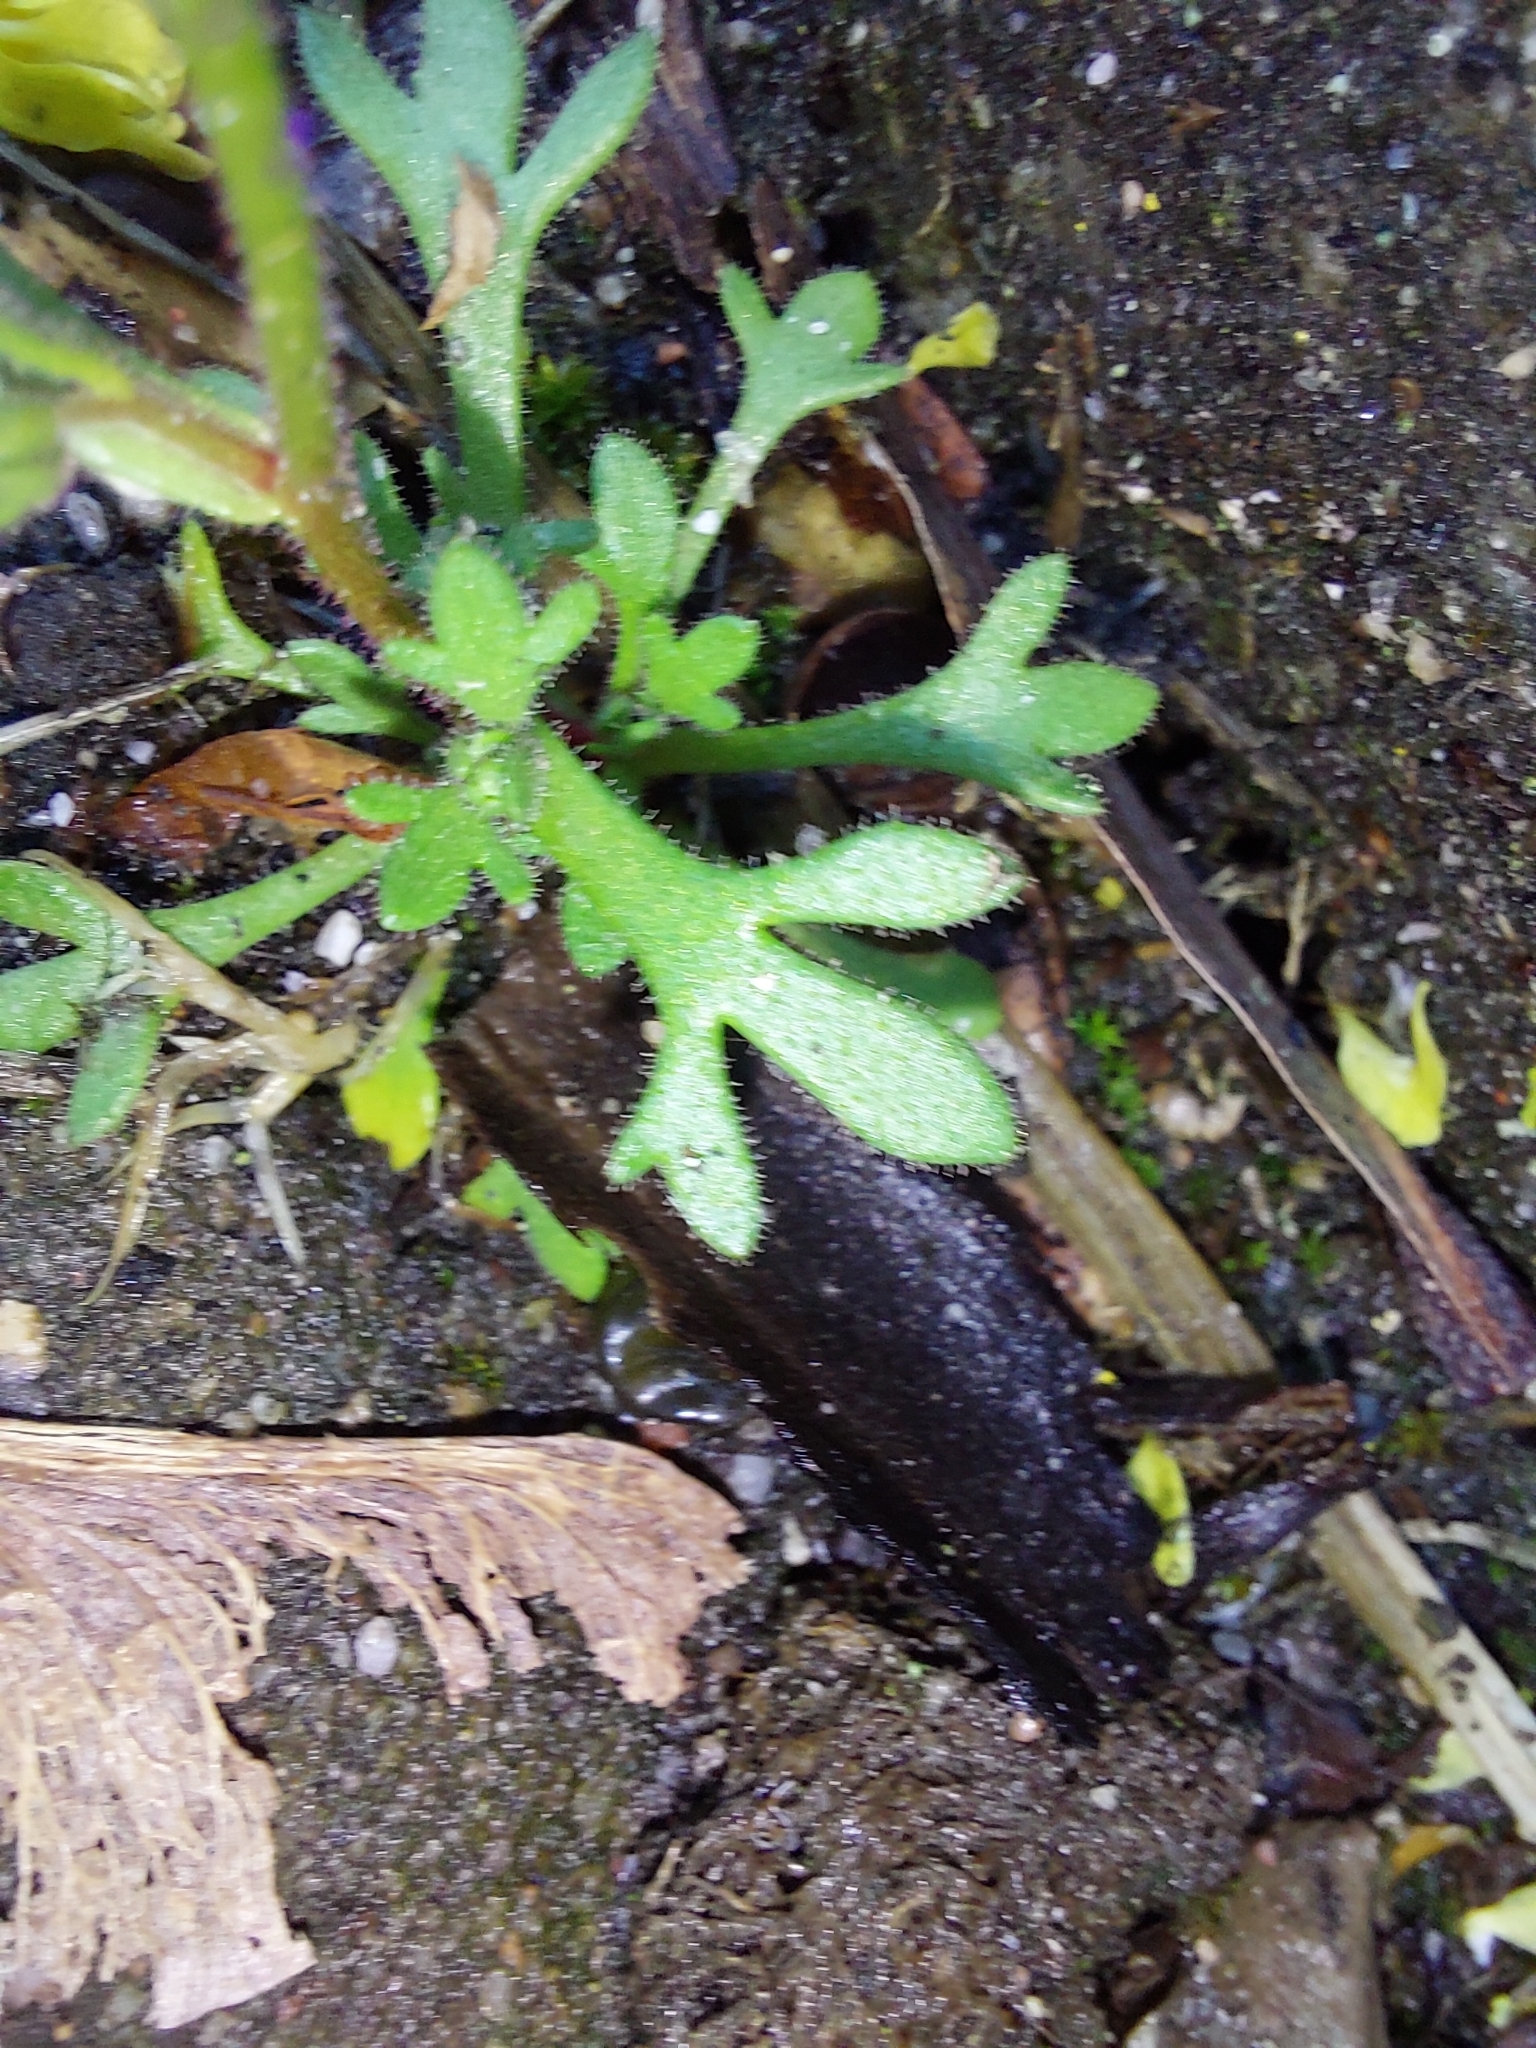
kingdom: Plantae
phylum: Tracheophyta
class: Magnoliopsida
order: Saxifragales
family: Saxifragaceae
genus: Saxifraga
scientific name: Saxifraga tridactylites
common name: Rue-leaved saxifrage
